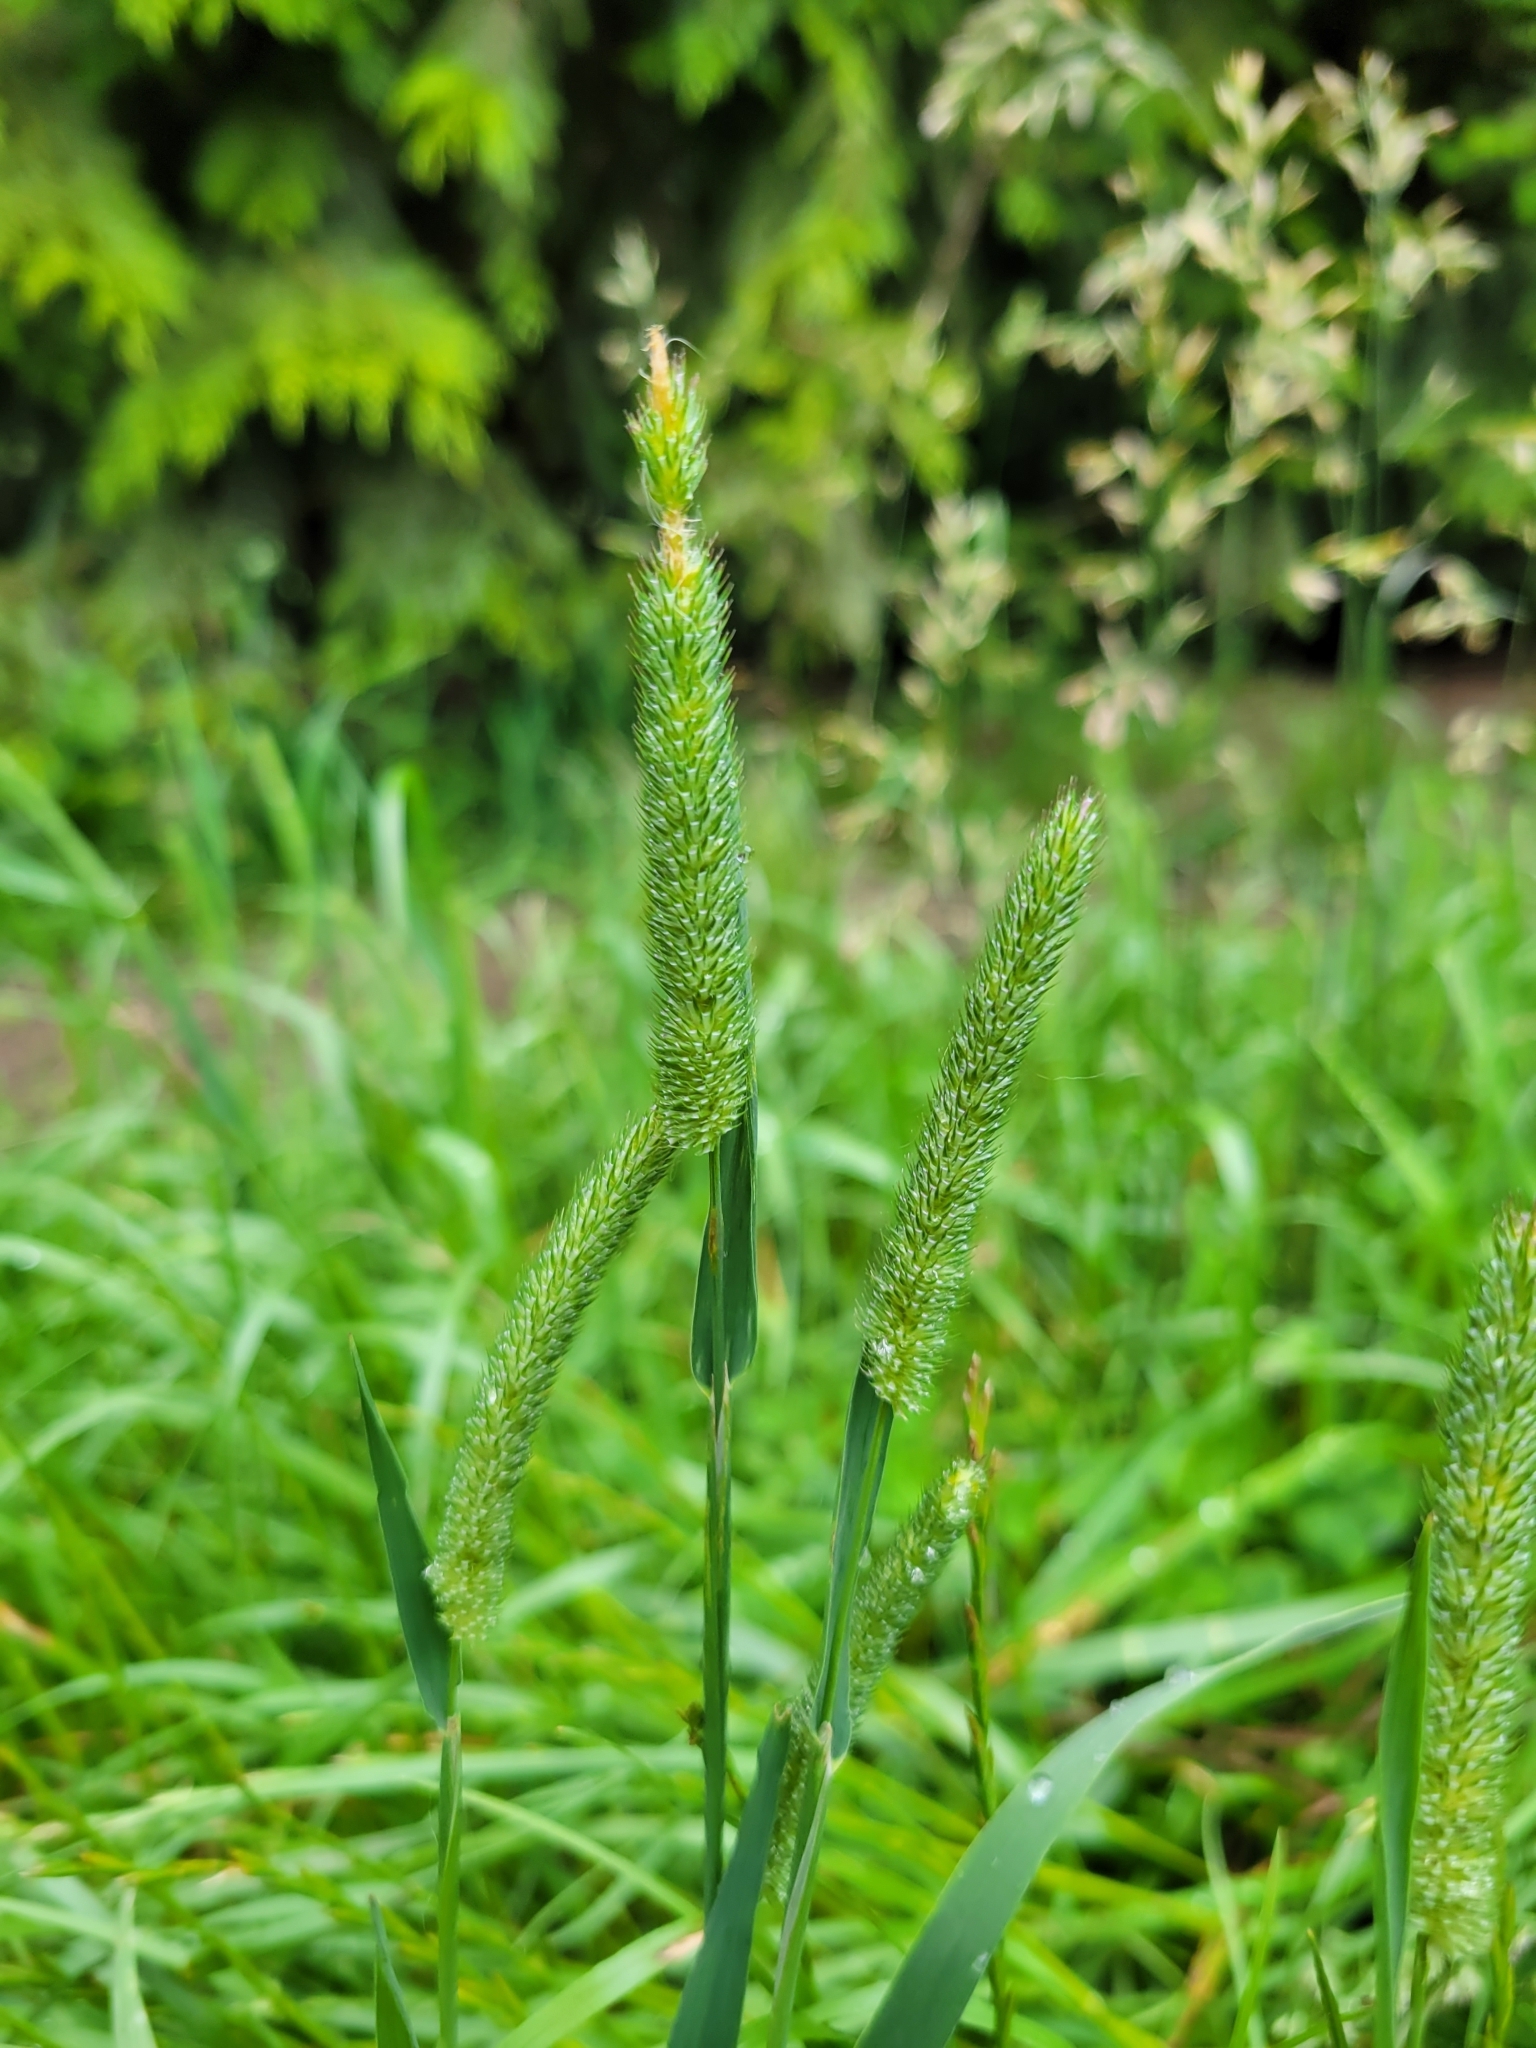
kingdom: Plantae
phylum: Tracheophyta
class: Liliopsida
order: Poales
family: Poaceae
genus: Phleum
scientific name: Phleum pratense
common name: Timothy grass
